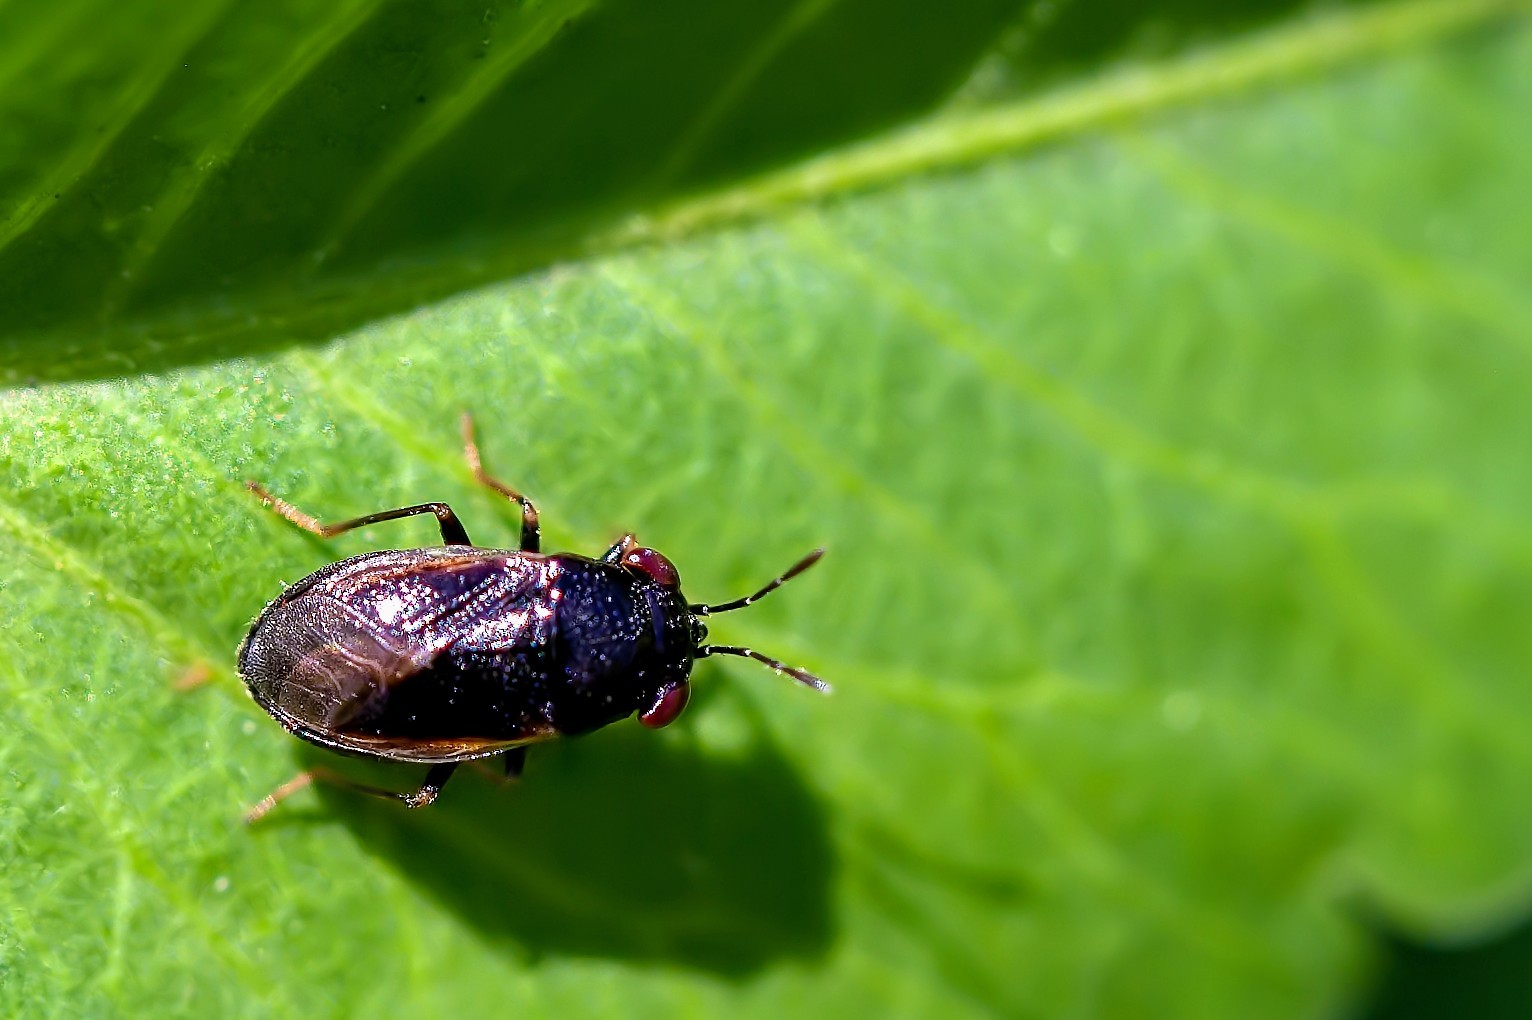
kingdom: Animalia
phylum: Arthropoda
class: Insecta
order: Hemiptera
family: Geocoridae
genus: Geocoris
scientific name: Geocoris uliginosus
